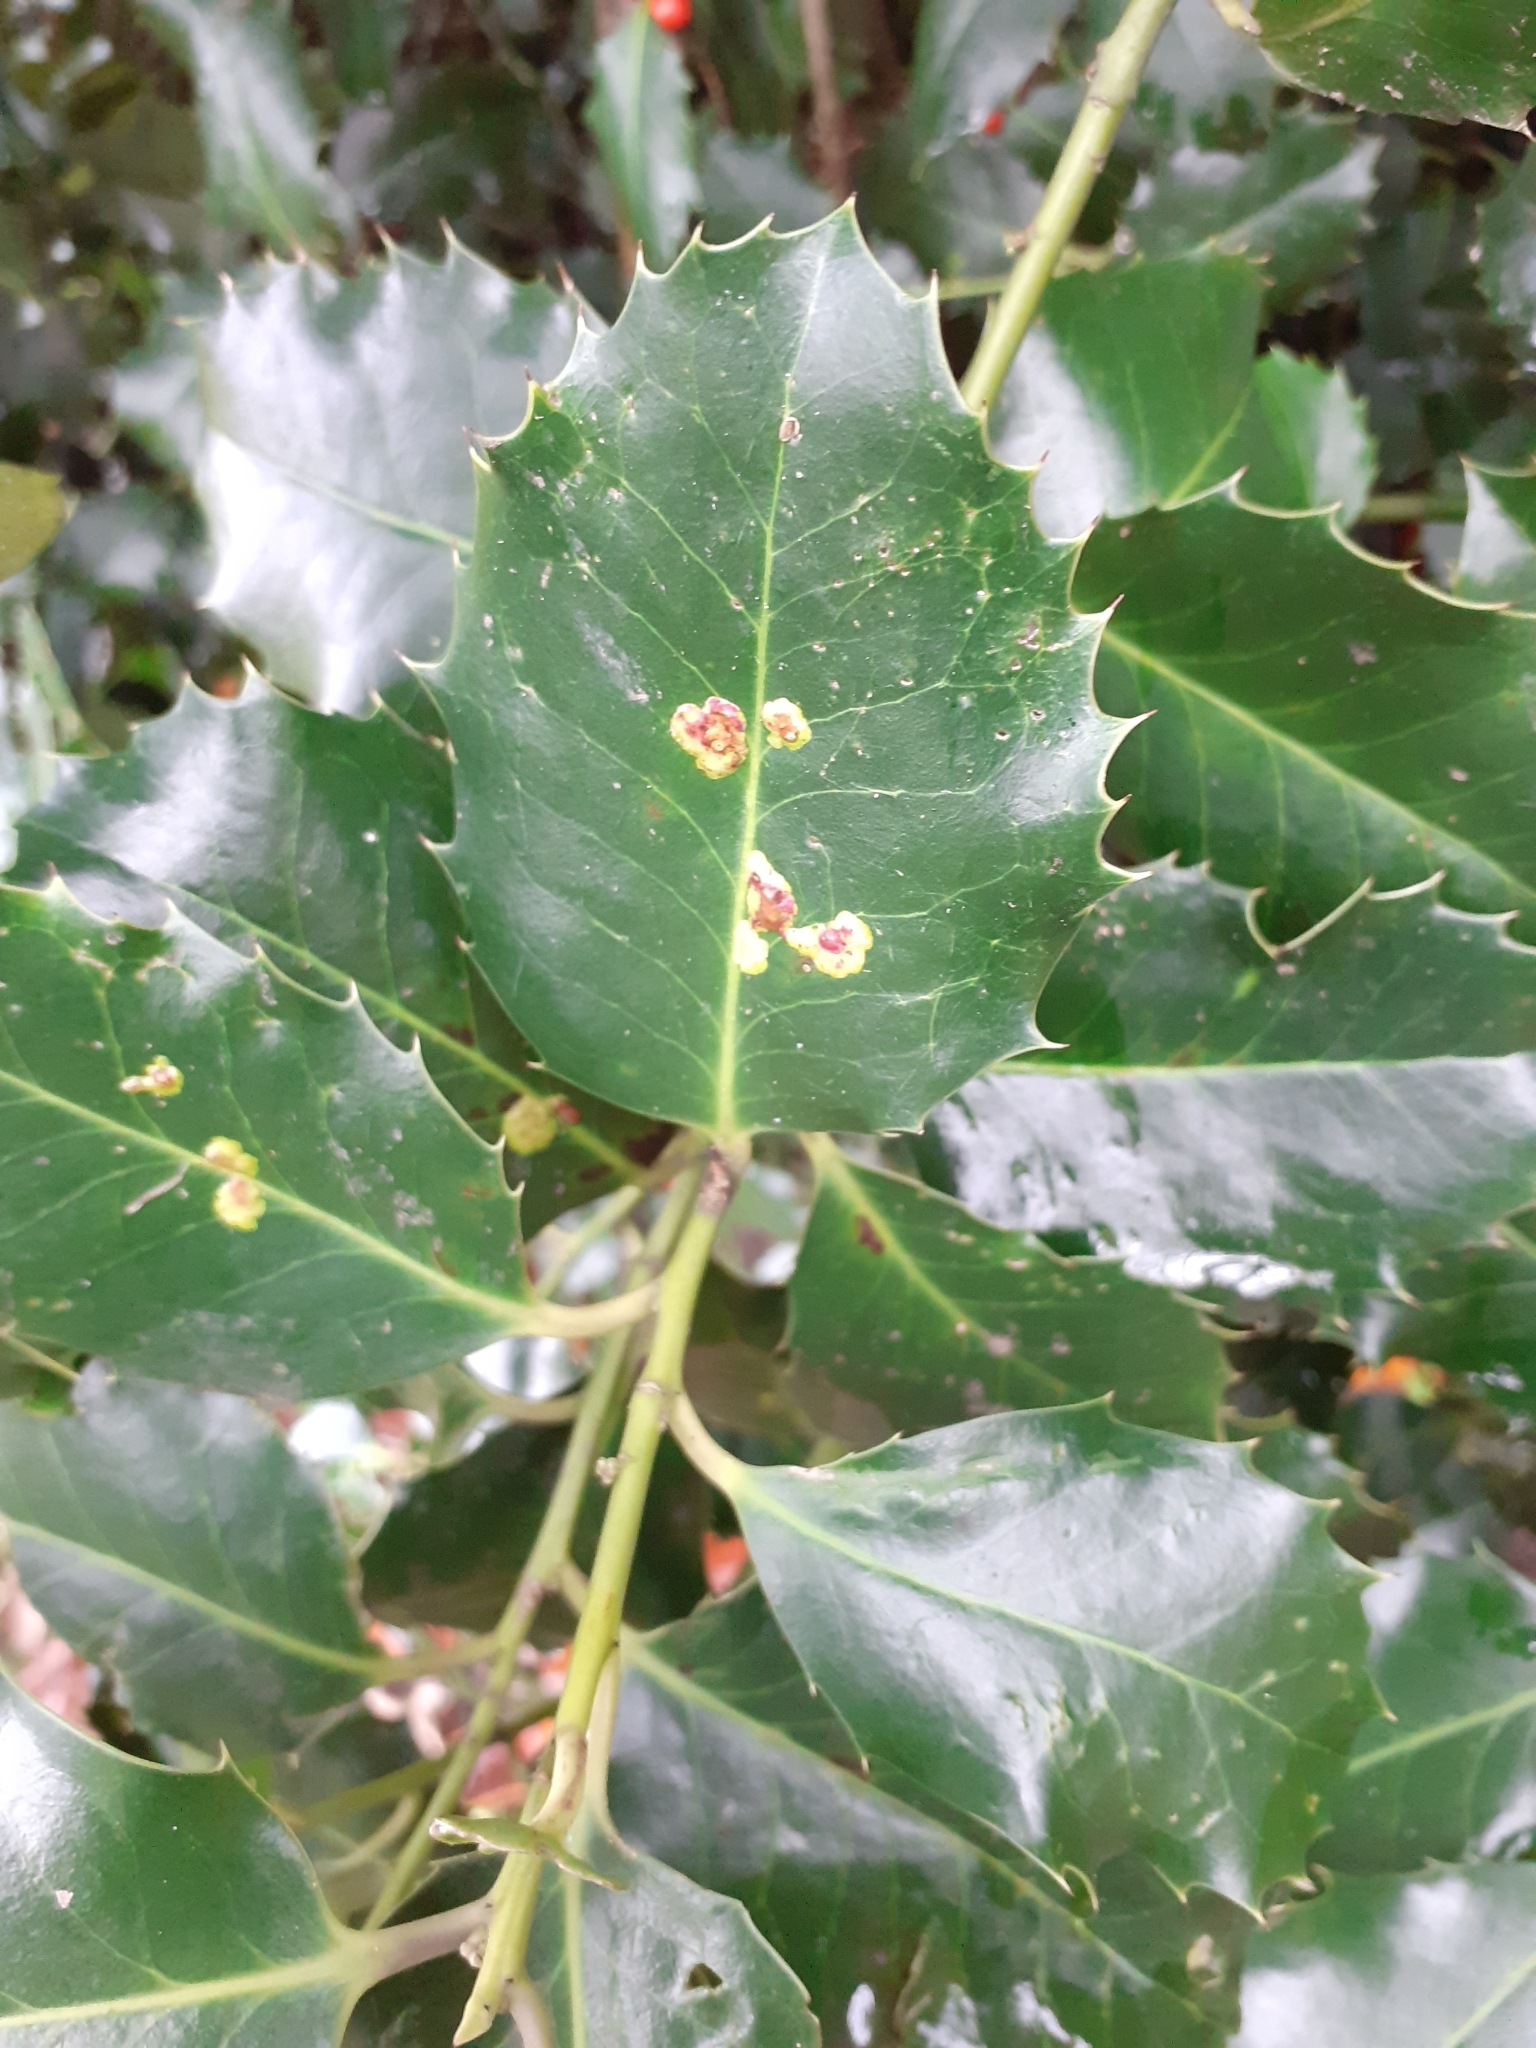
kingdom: Animalia
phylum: Arthropoda
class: Insecta
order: Diptera
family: Agromyzidae
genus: Phytomyza
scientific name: Phytomyza ilicis
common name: Holly leafminer
